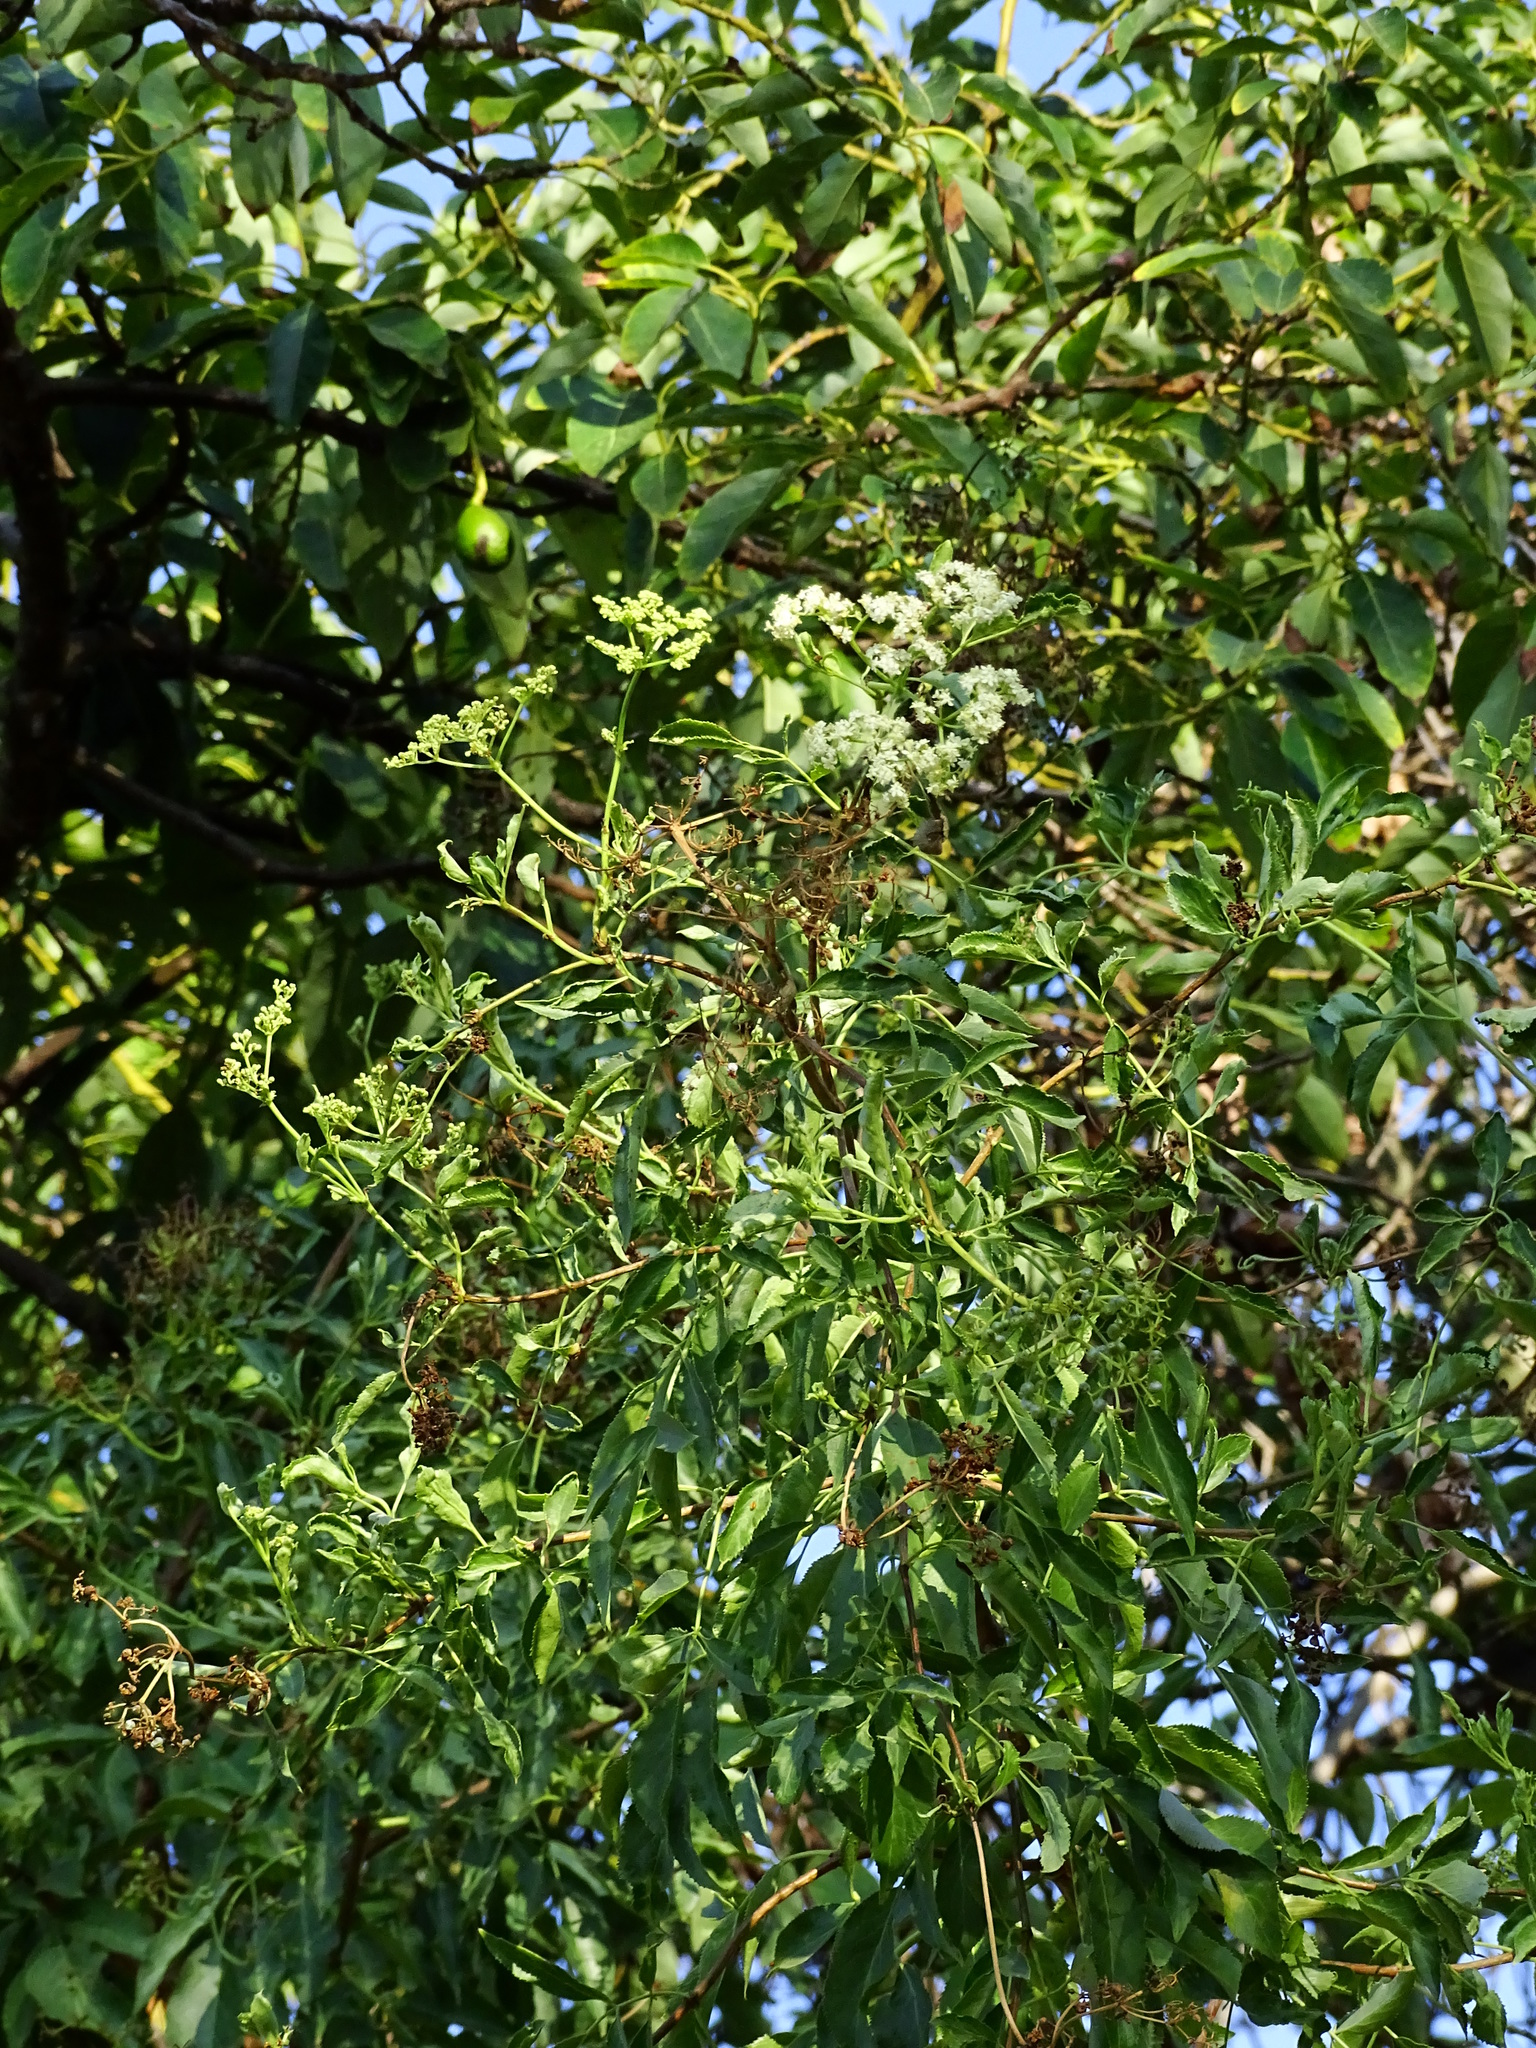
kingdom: Plantae
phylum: Tracheophyta
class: Magnoliopsida
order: Dipsacales
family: Viburnaceae
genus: Sambucus
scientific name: Sambucus cerulea
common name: Blue elder
